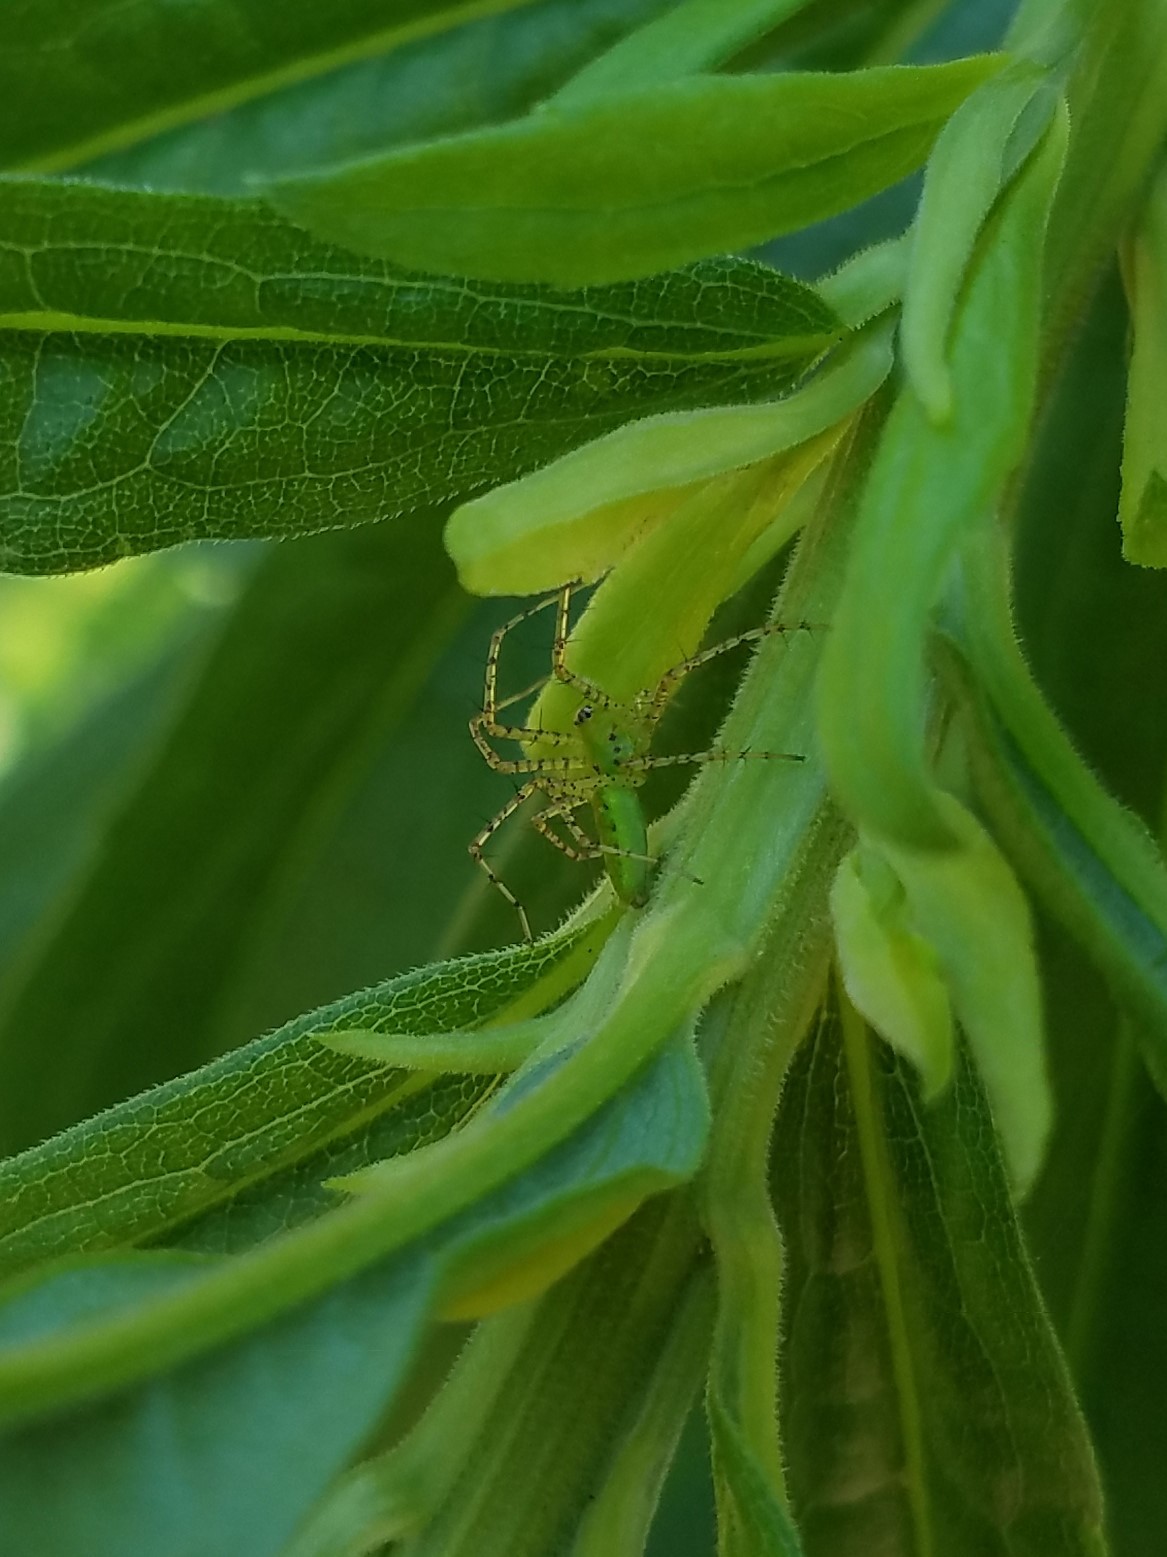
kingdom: Animalia
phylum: Arthropoda
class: Arachnida
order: Araneae
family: Oxyopidae
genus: Peucetia
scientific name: Peucetia viridans
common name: Lynx spiders
